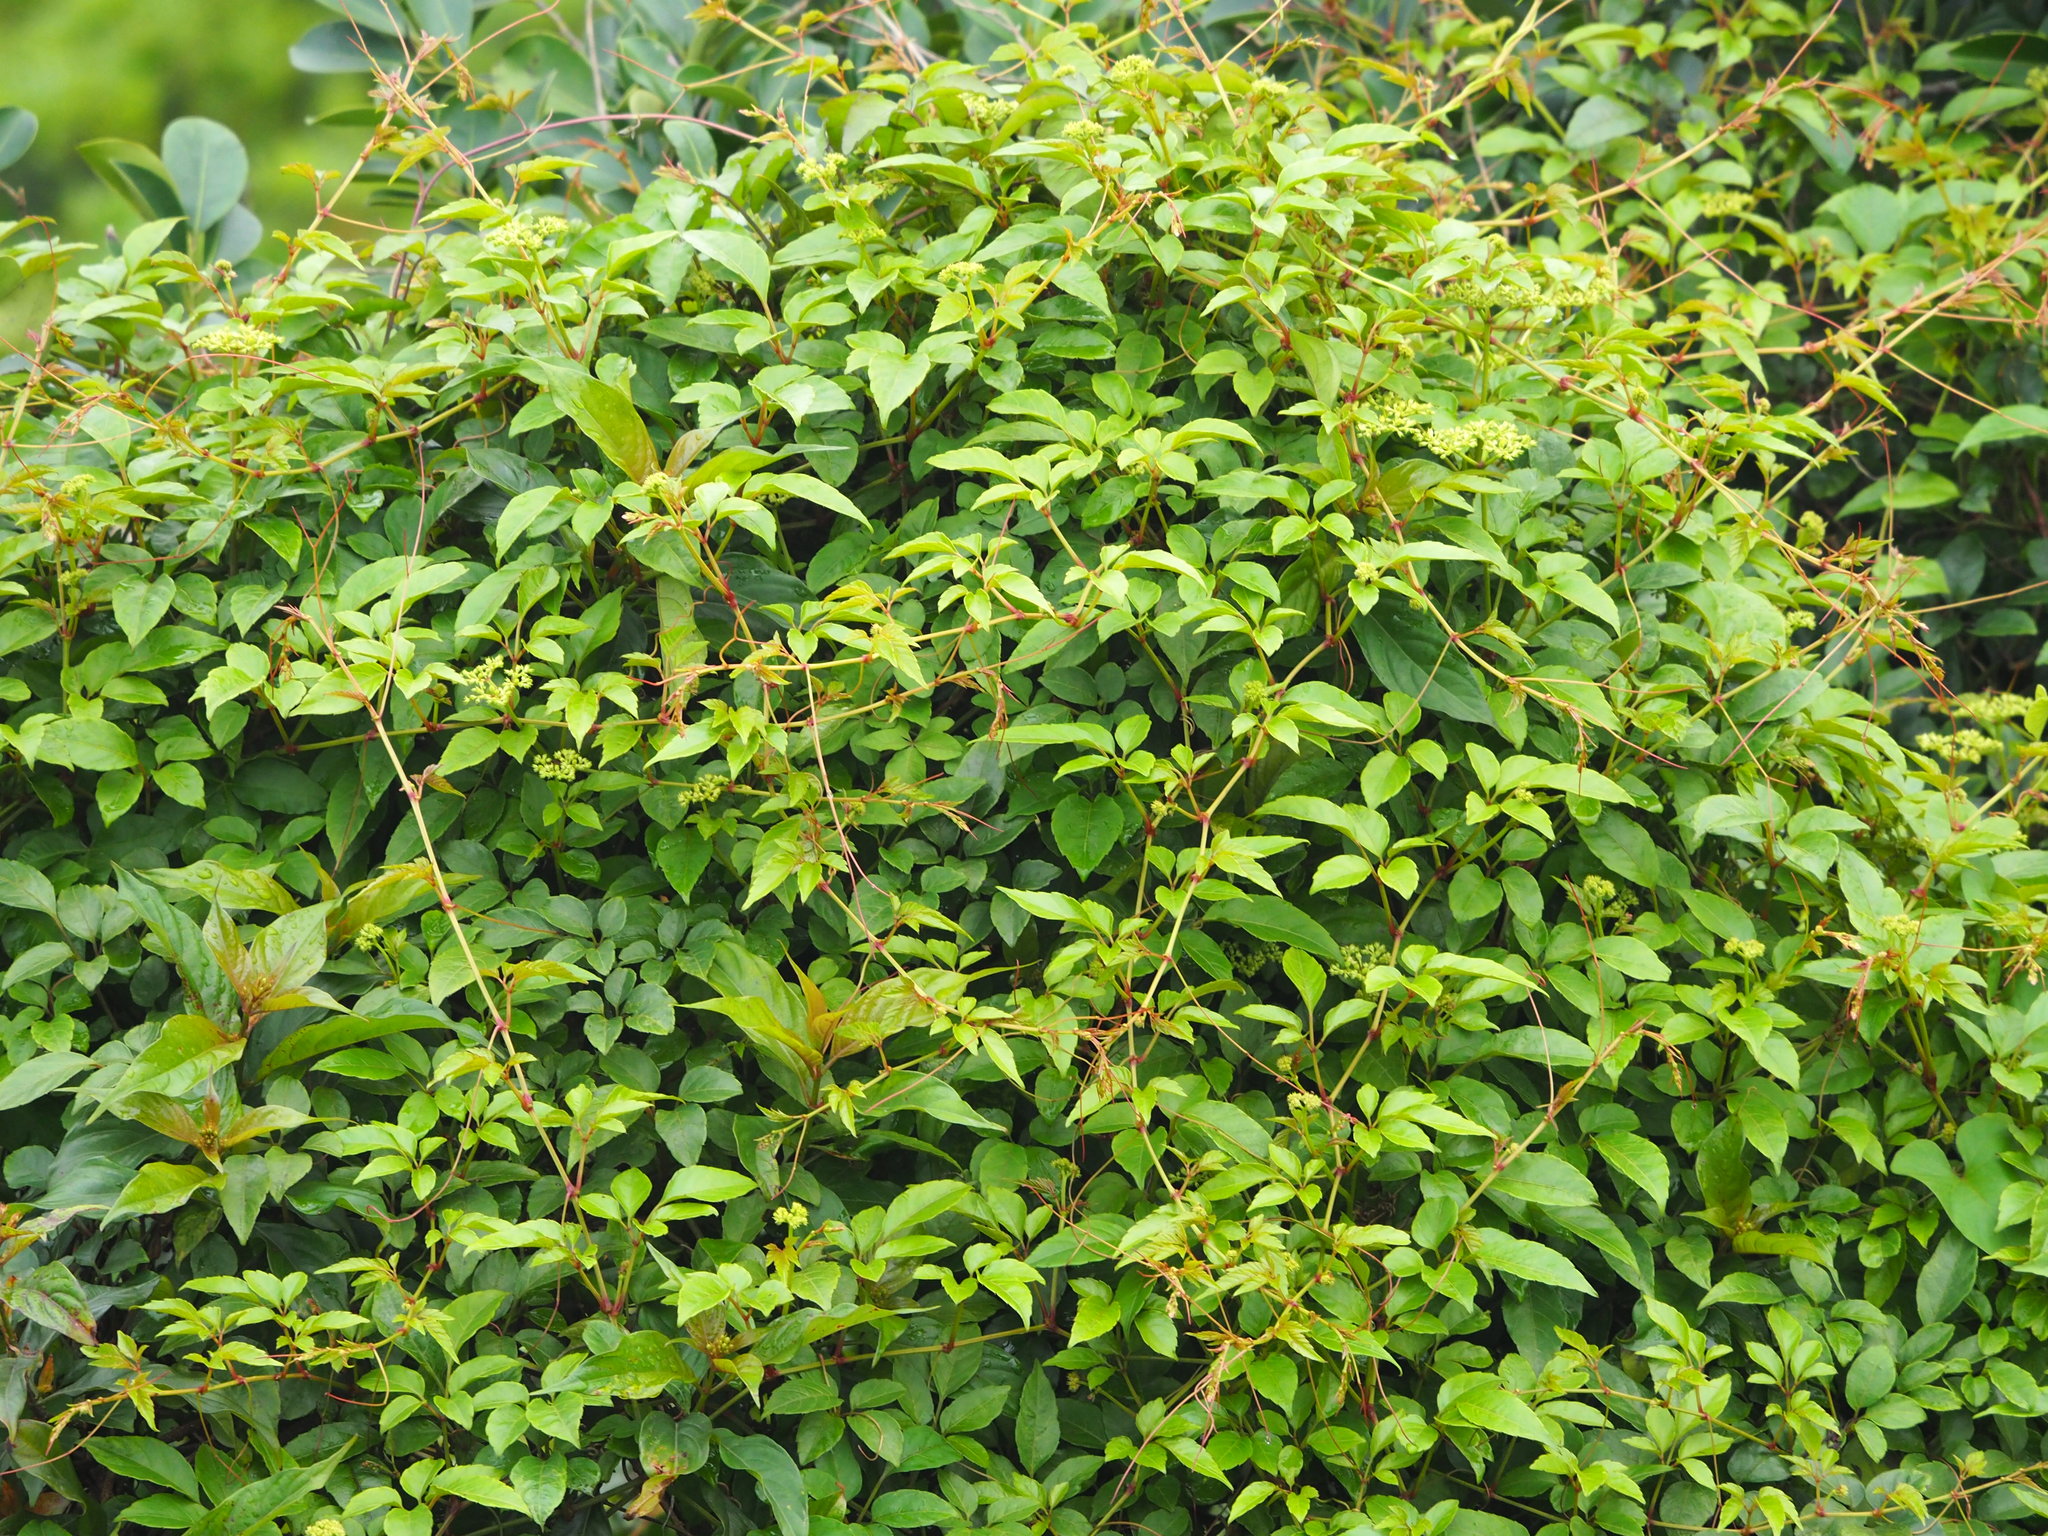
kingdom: Plantae
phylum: Tracheophyta
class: Magnoliopsida
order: Vitales
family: Vitaceae
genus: Causonis
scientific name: Causonis corniculata
